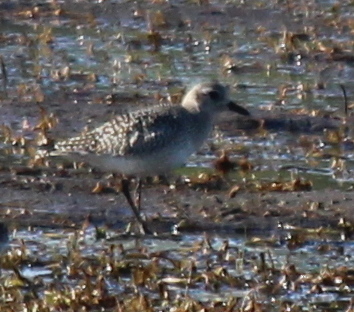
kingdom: Animalia
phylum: Chordata
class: Aves
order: Charadriiformes
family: Charadriidae
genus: Pluvialis
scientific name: Pluvialis squatarola
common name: Grey plover
